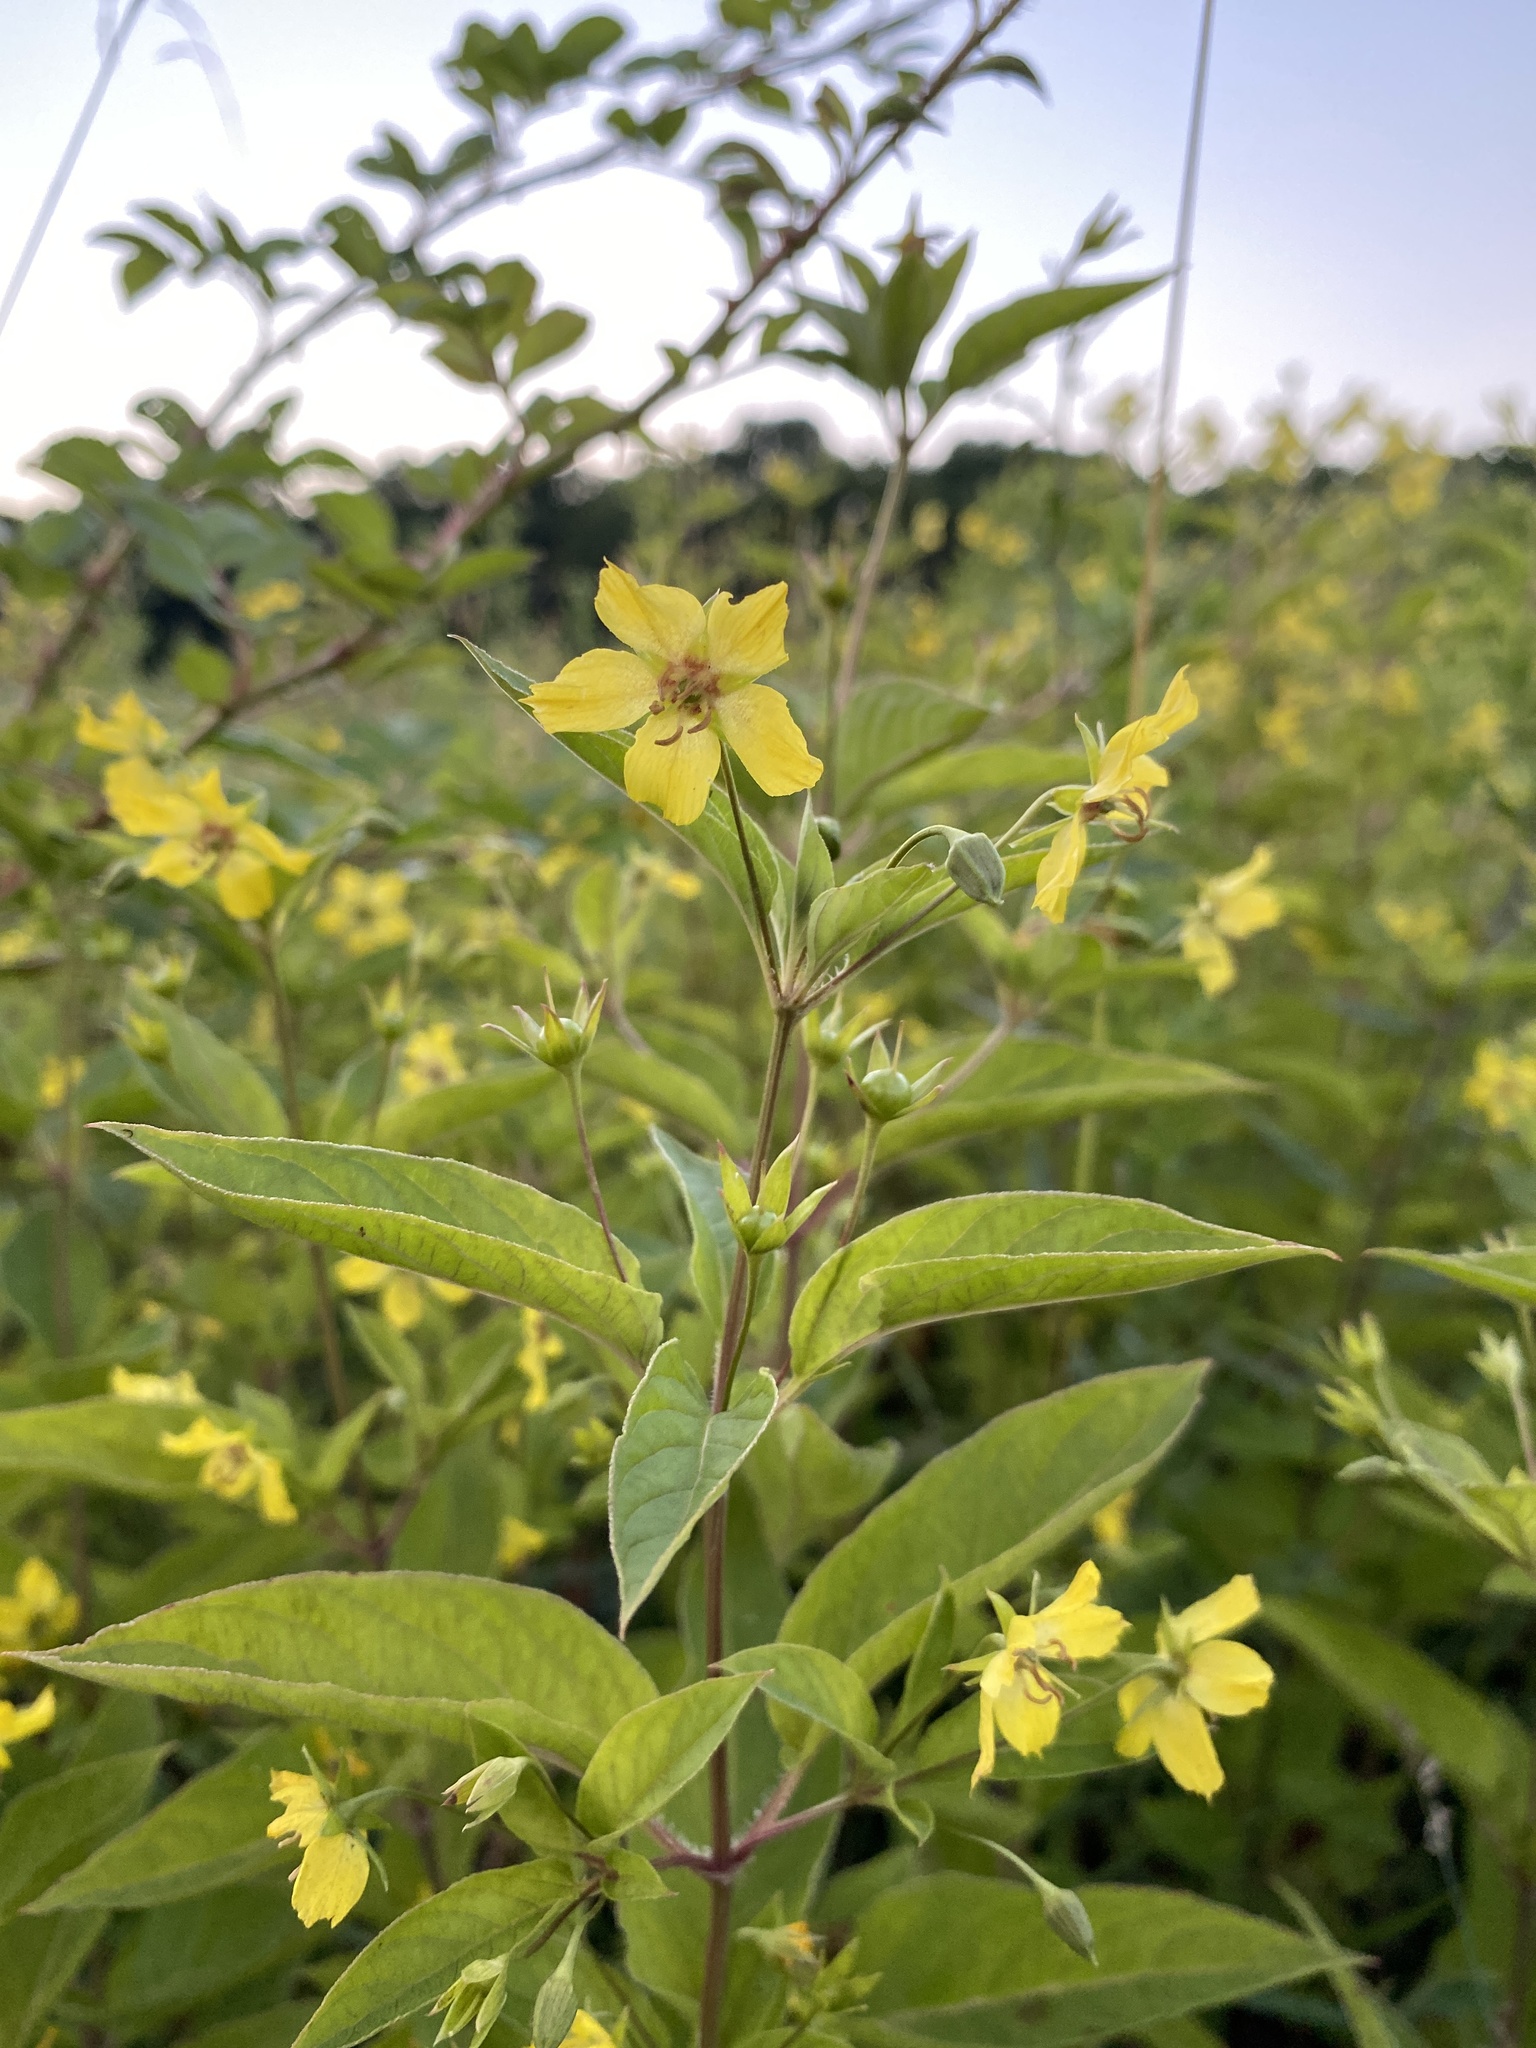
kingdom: Plantae
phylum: Tracheophyta
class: Magnoliopsida
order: Ericales
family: Primulaceae
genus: Lysimachia
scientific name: Lysimachia ciliata
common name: Fringed loosestrife
